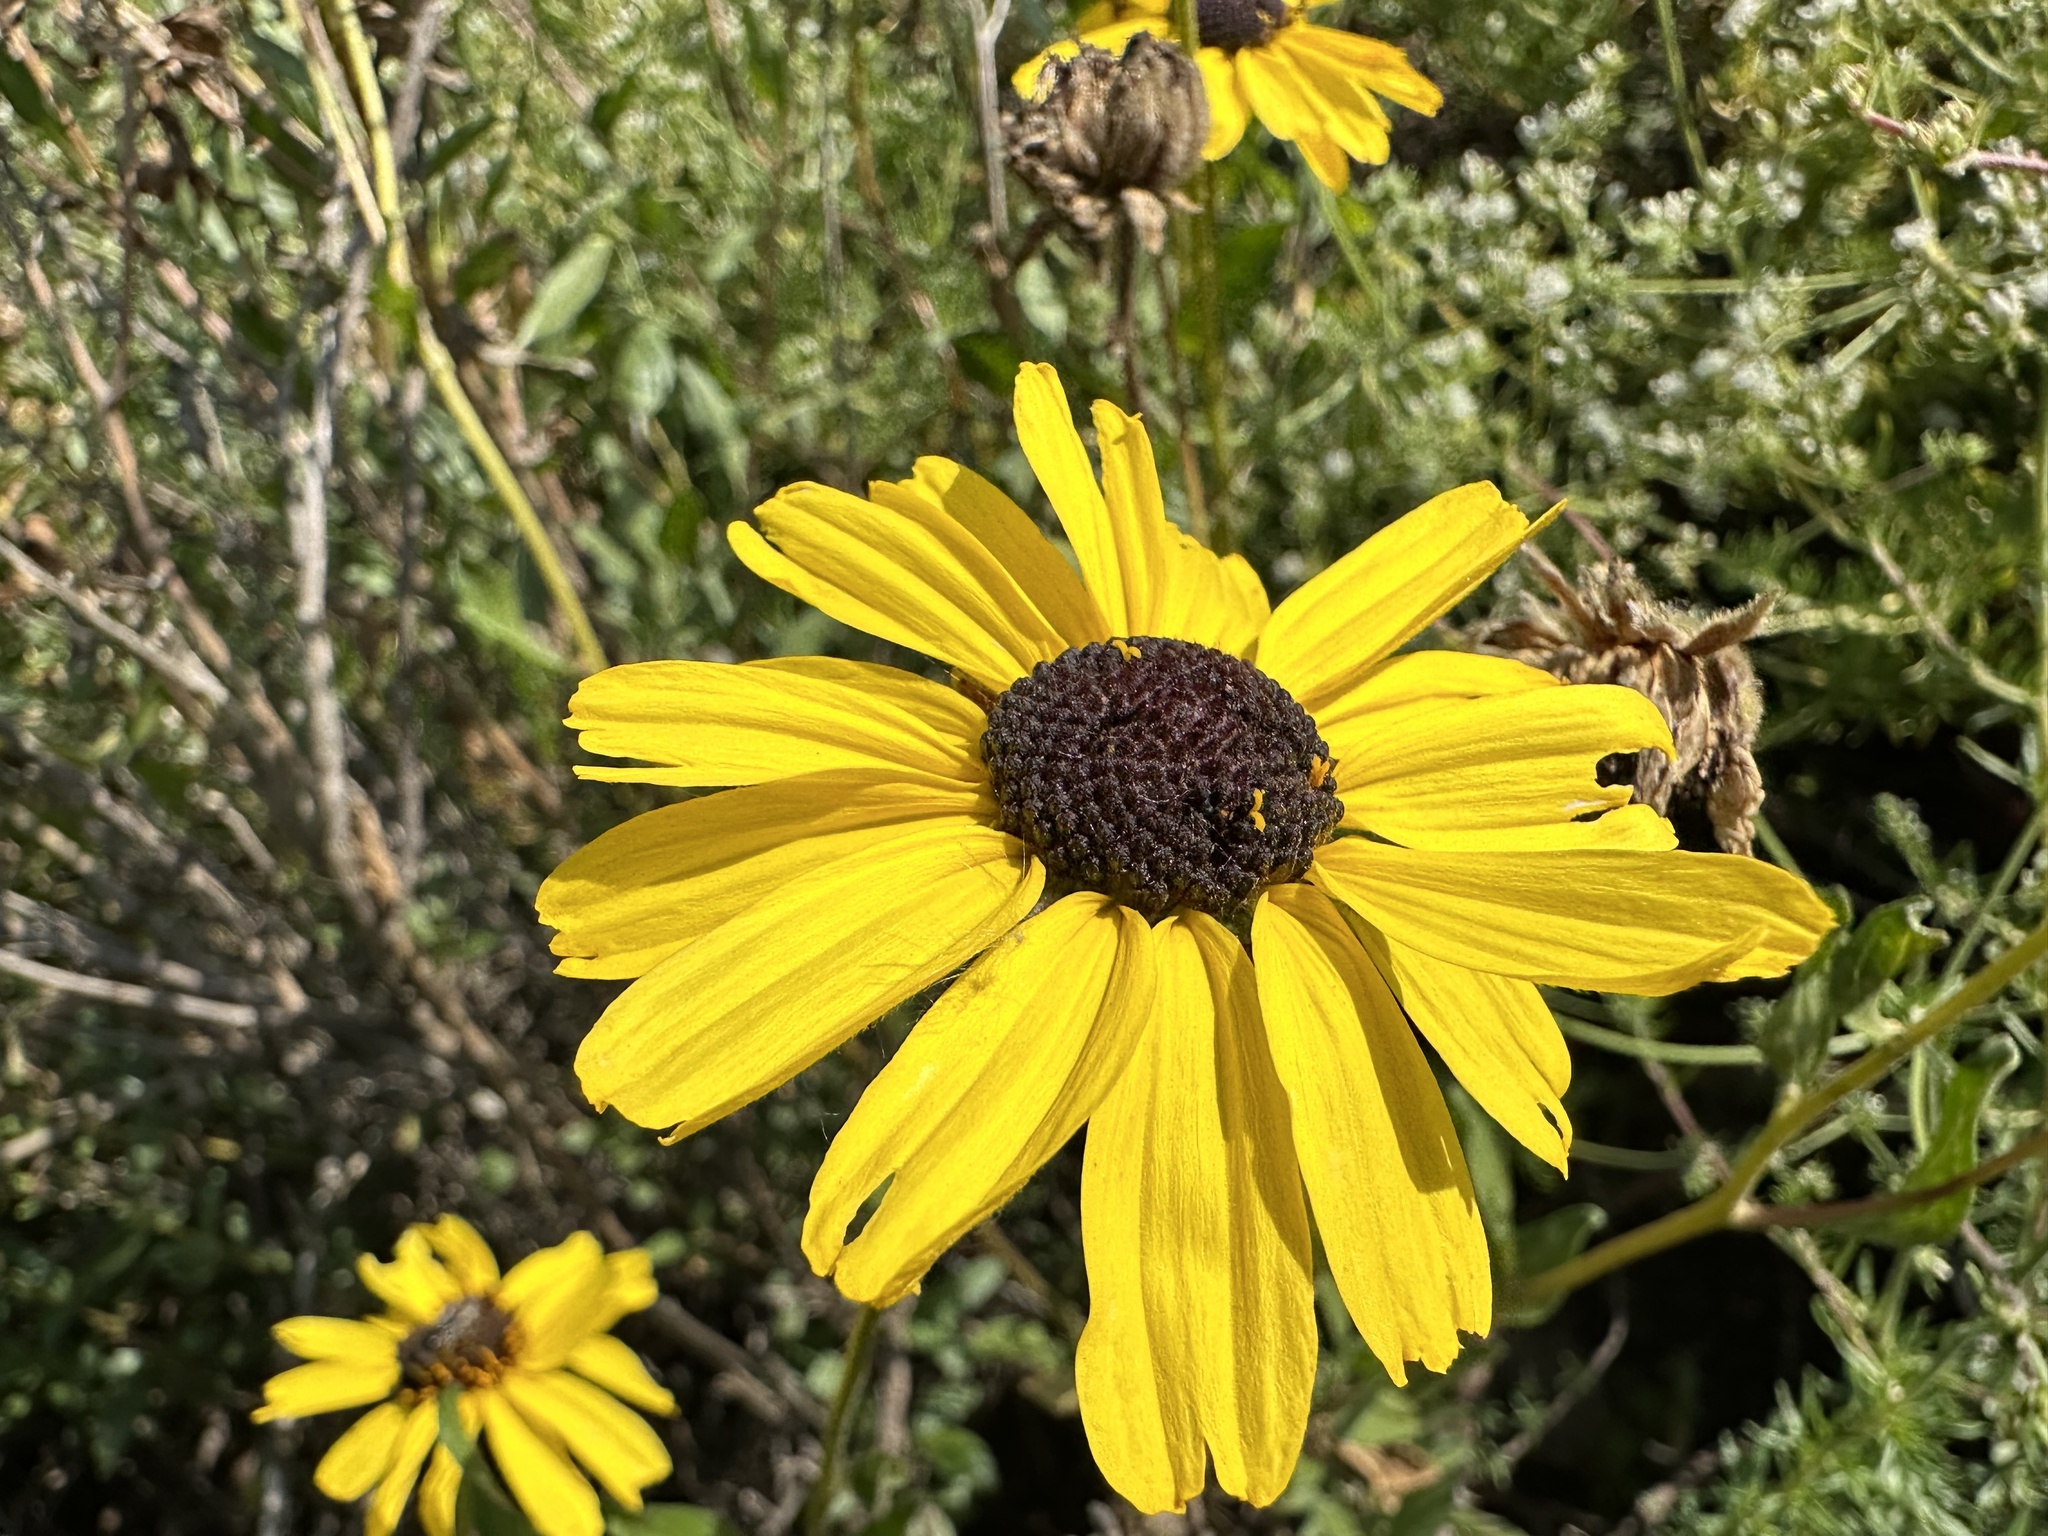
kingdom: Plantae
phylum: Tracheophyta
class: Magnoliopsida
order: Asterales
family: Asteraceae
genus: Encelia
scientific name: Encelia californica
